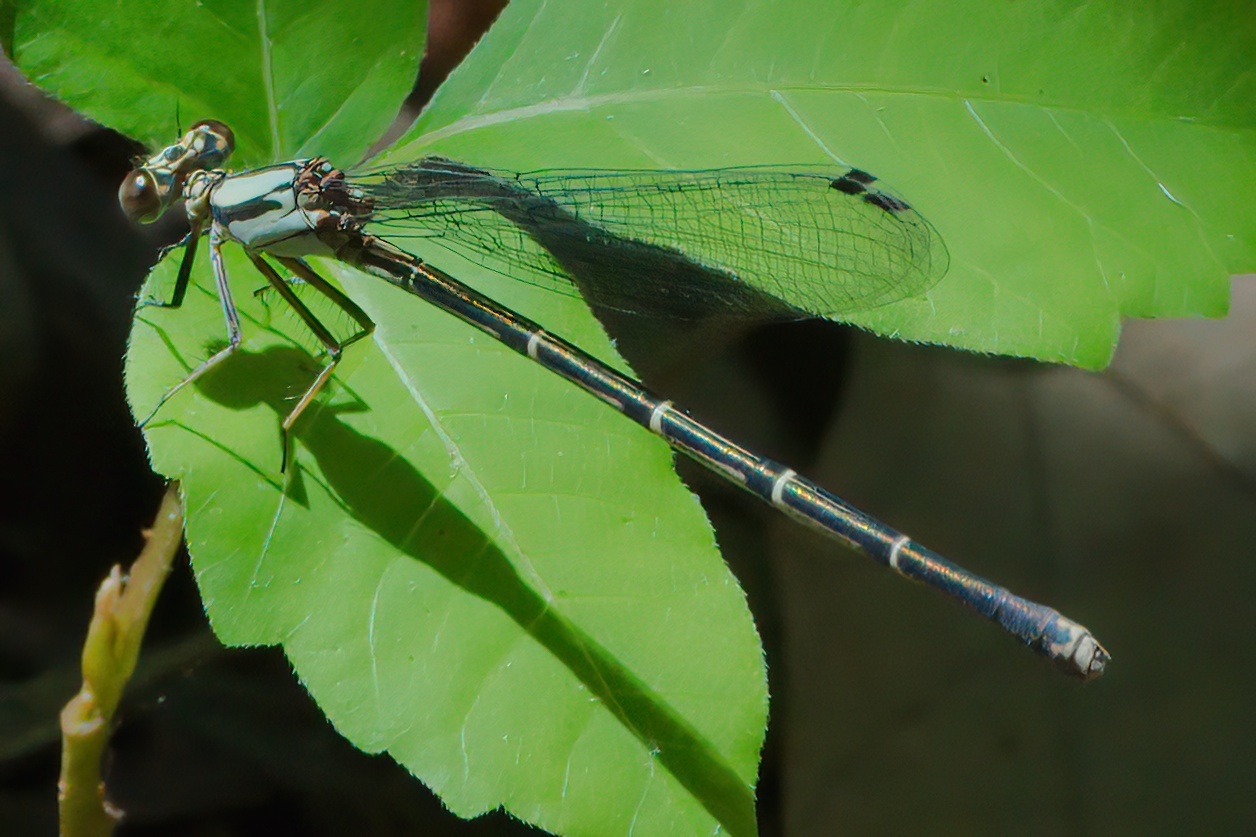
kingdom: Animalia
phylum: Arthropoda
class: Insecta
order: Odonata
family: Coenagrionidae
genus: Argia
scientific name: Argia tibialis
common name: Blue-tipped dancer
